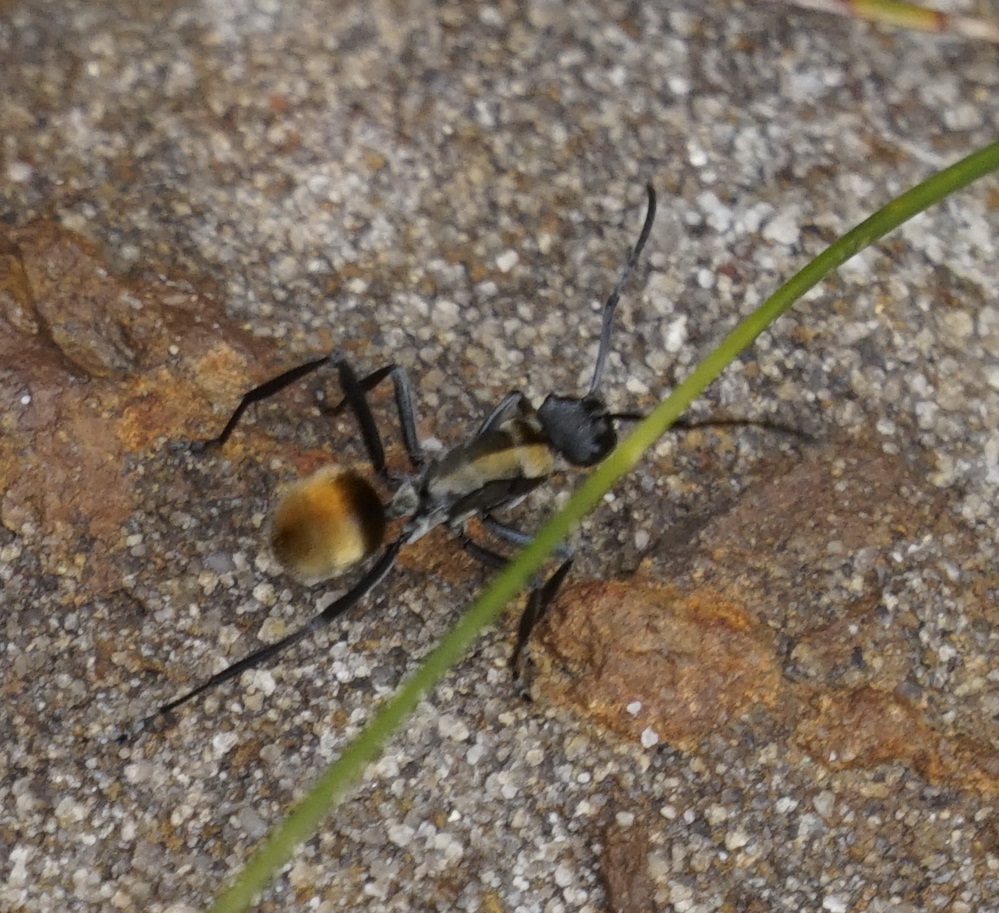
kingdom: Animalia
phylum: Arthropoda
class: Insecta
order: Hymenoptera
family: Formicidae
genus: Polyrhachis
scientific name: Polyrhachis ammon
